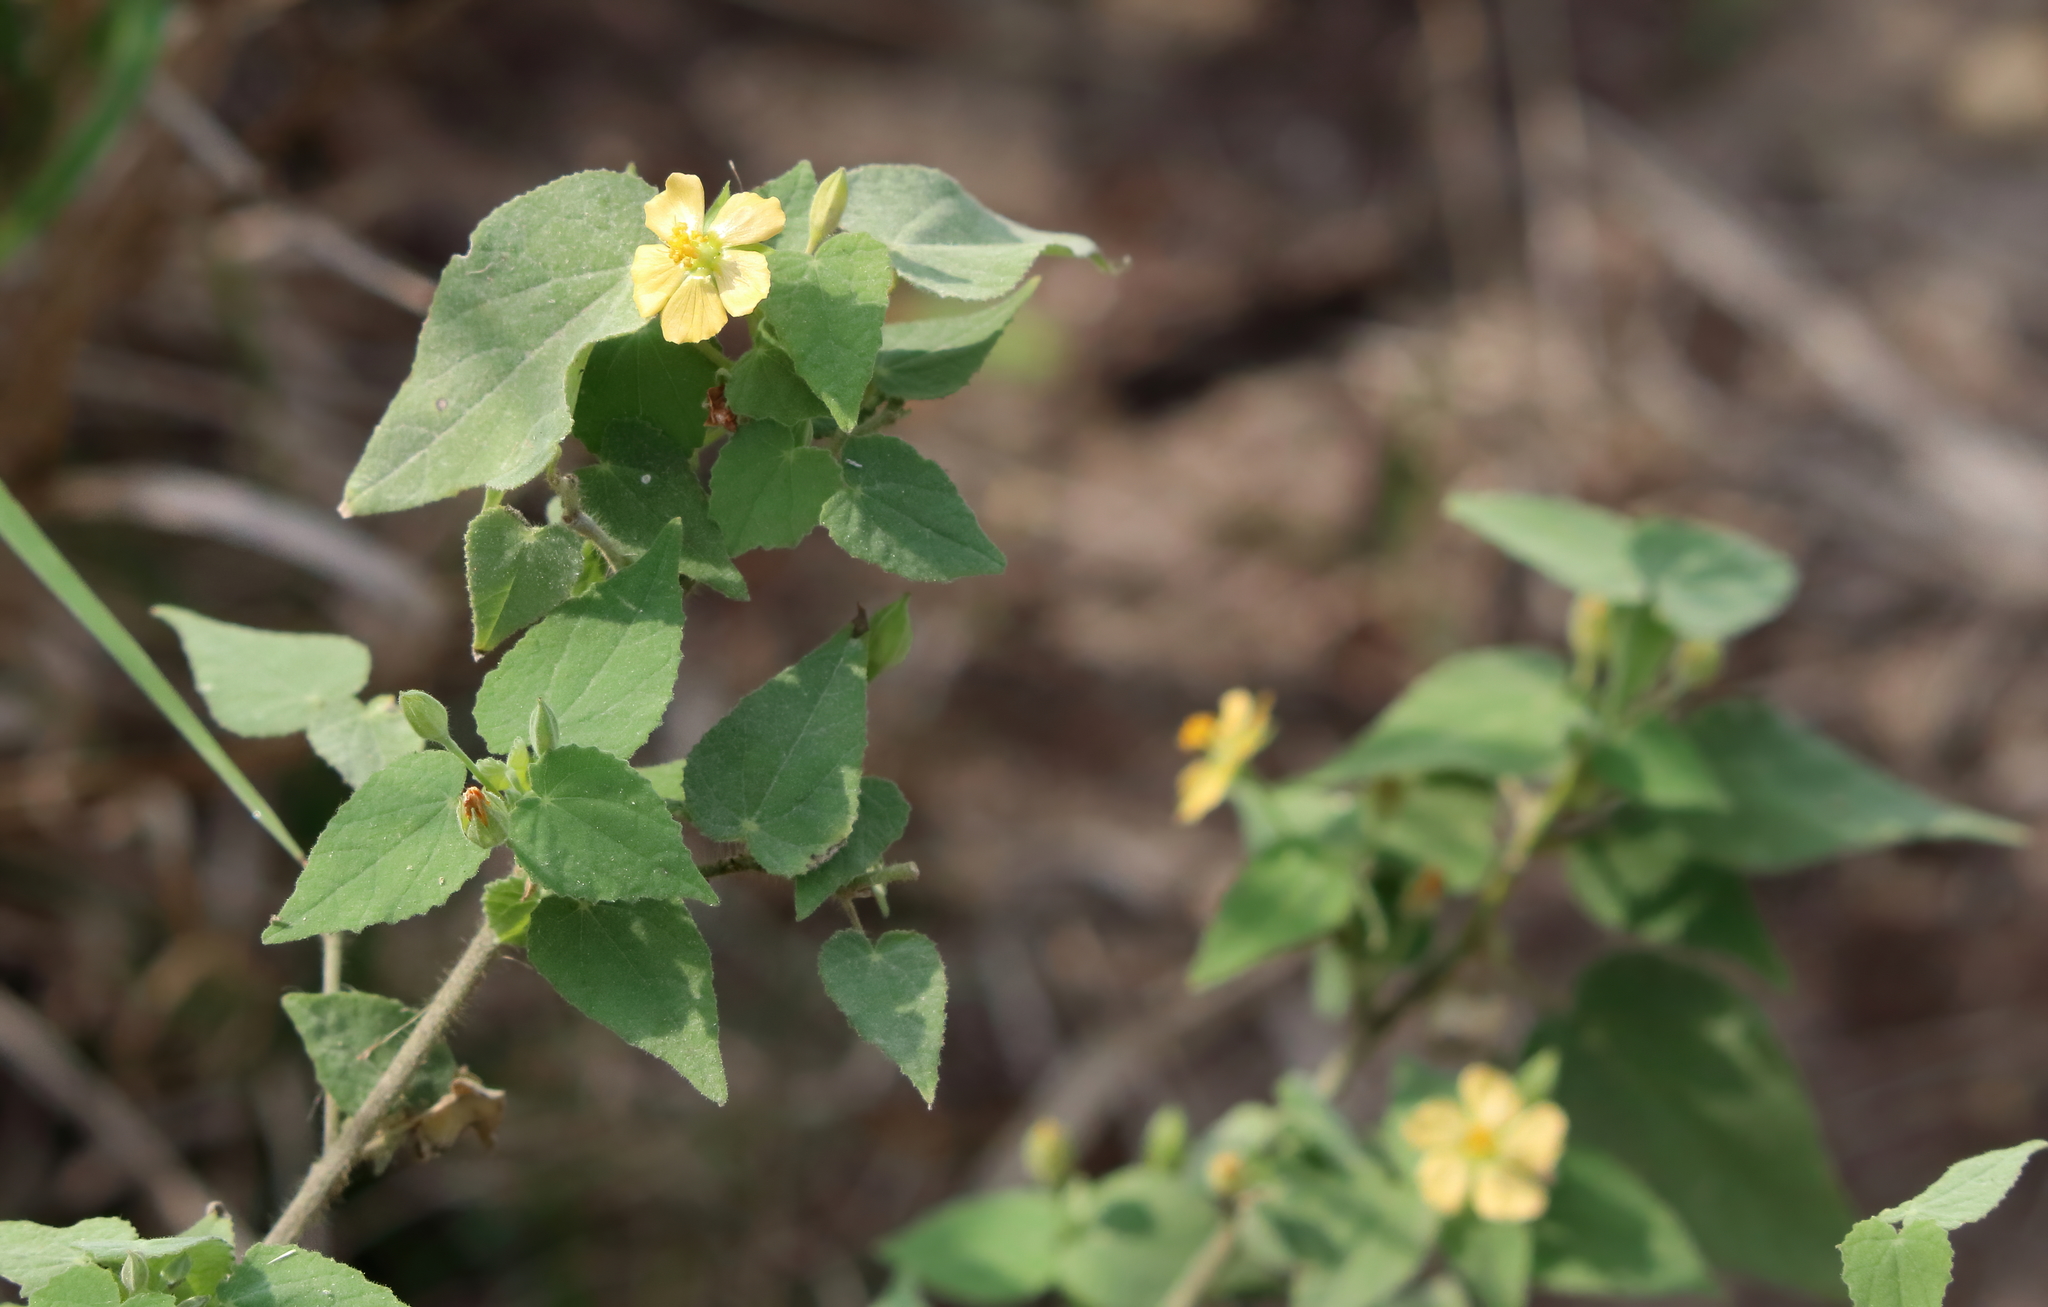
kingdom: Plantae
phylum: Tracheophyta
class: Magnoliopsida
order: Malvales
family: Malvaceae
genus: Abutilon
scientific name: Abutilon viscosum
